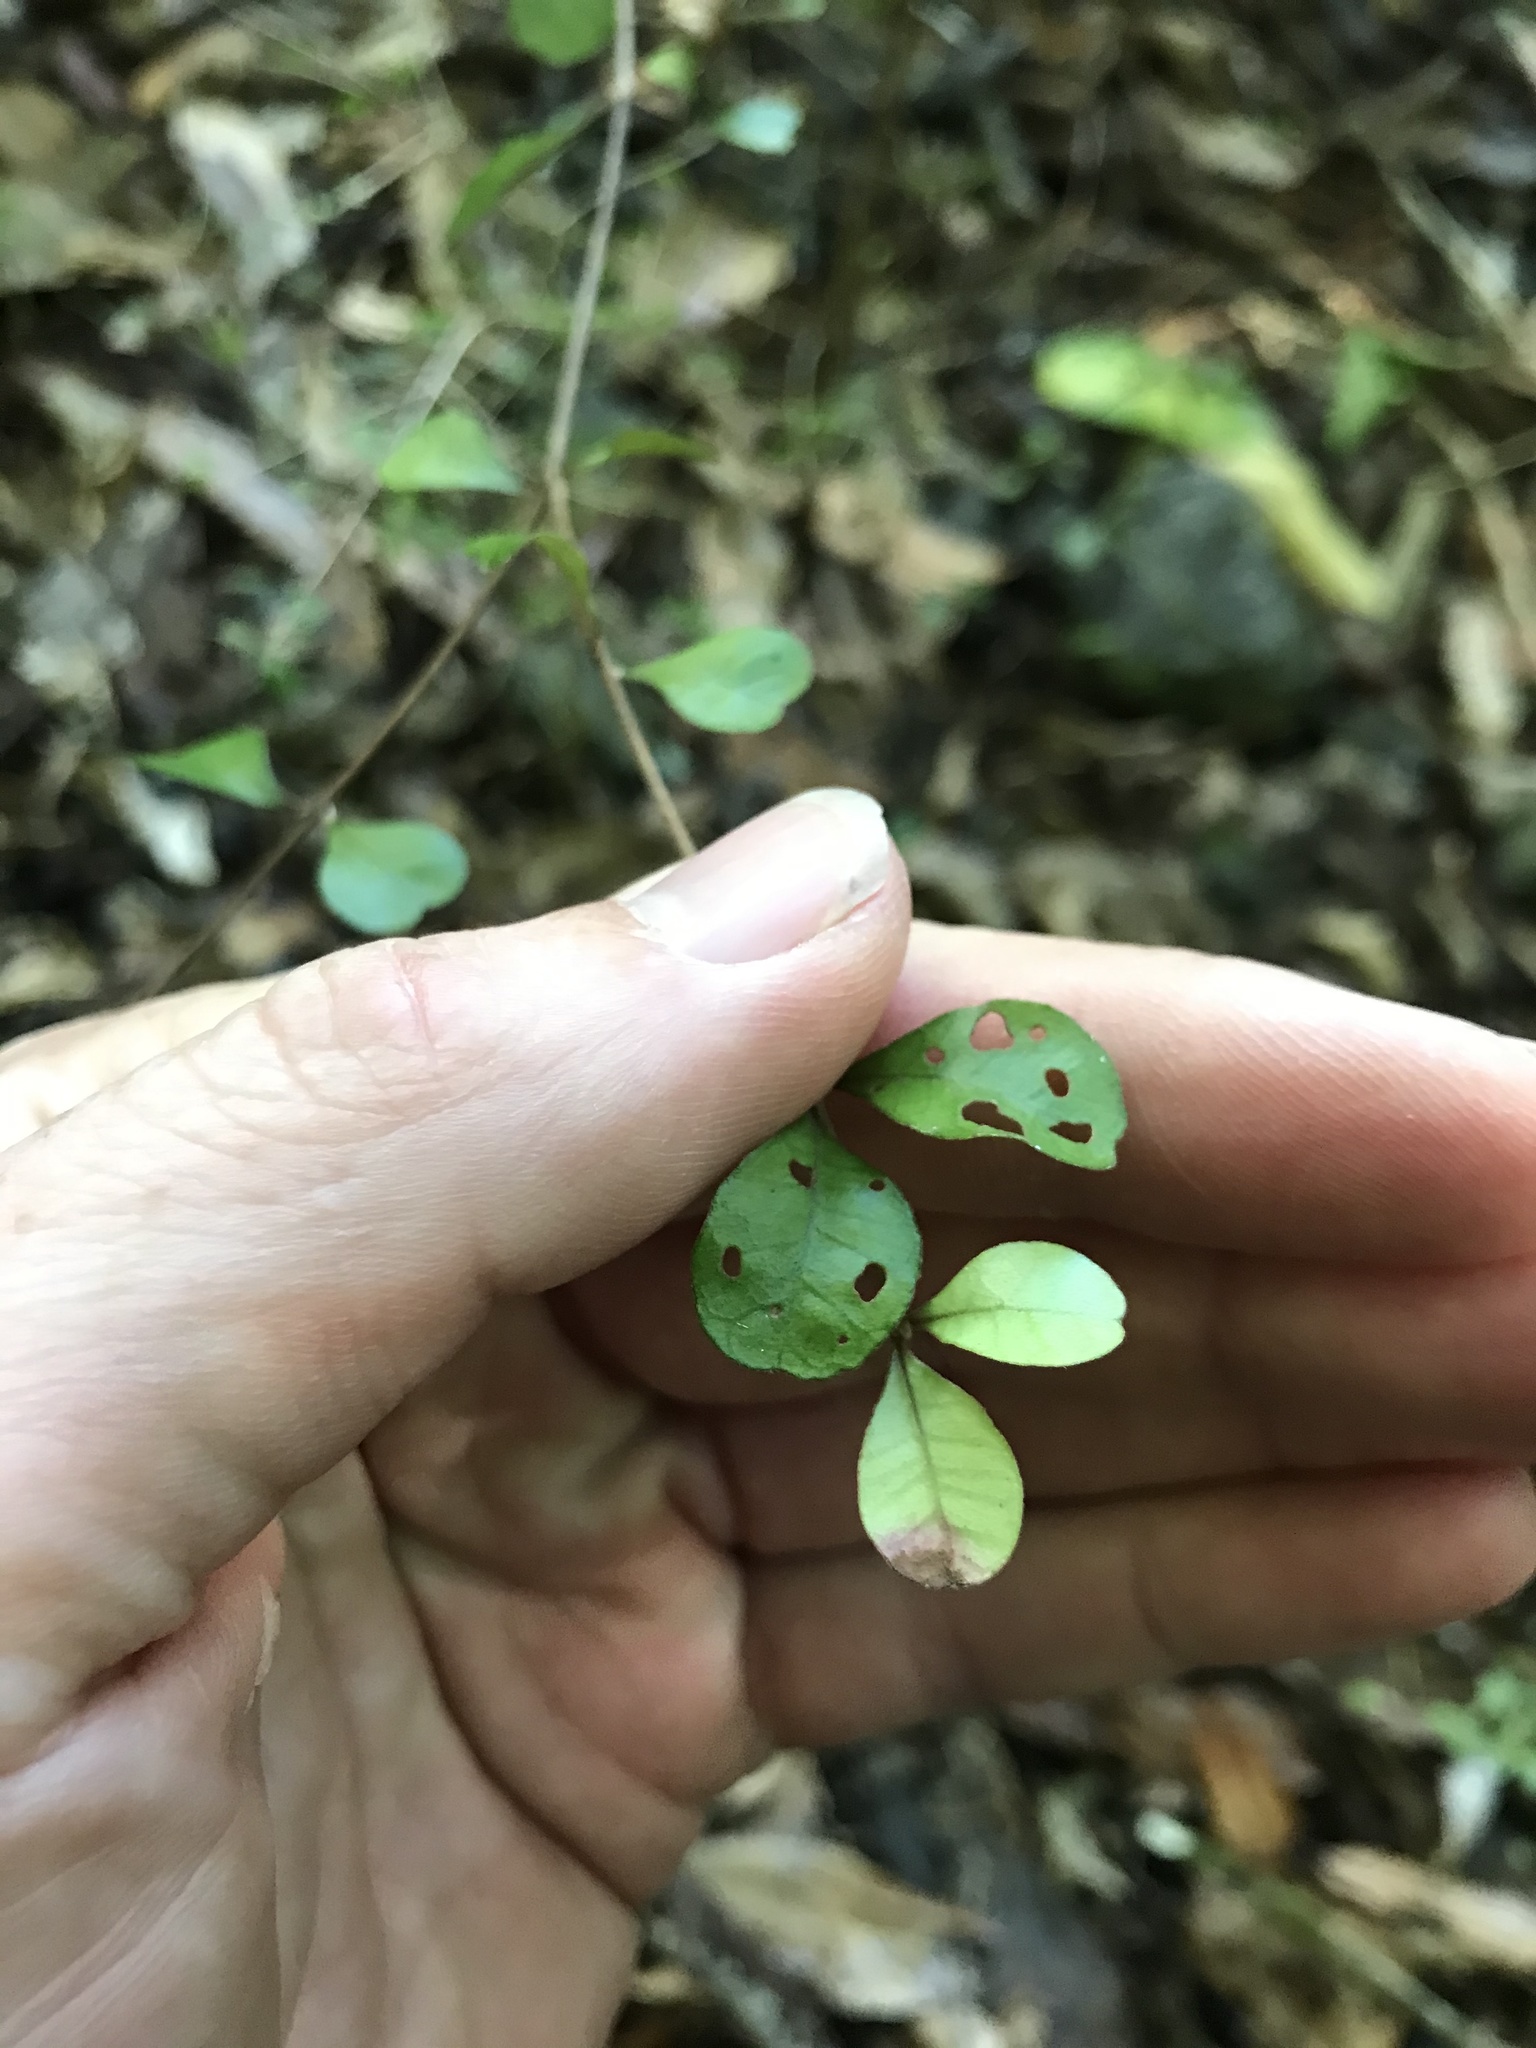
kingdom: Plantae
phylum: Tracheophyta
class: Magnoliopsida
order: Myrtales
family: Myrtaceae
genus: Lophomyrtus
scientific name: Lophomyrtus obcordata
